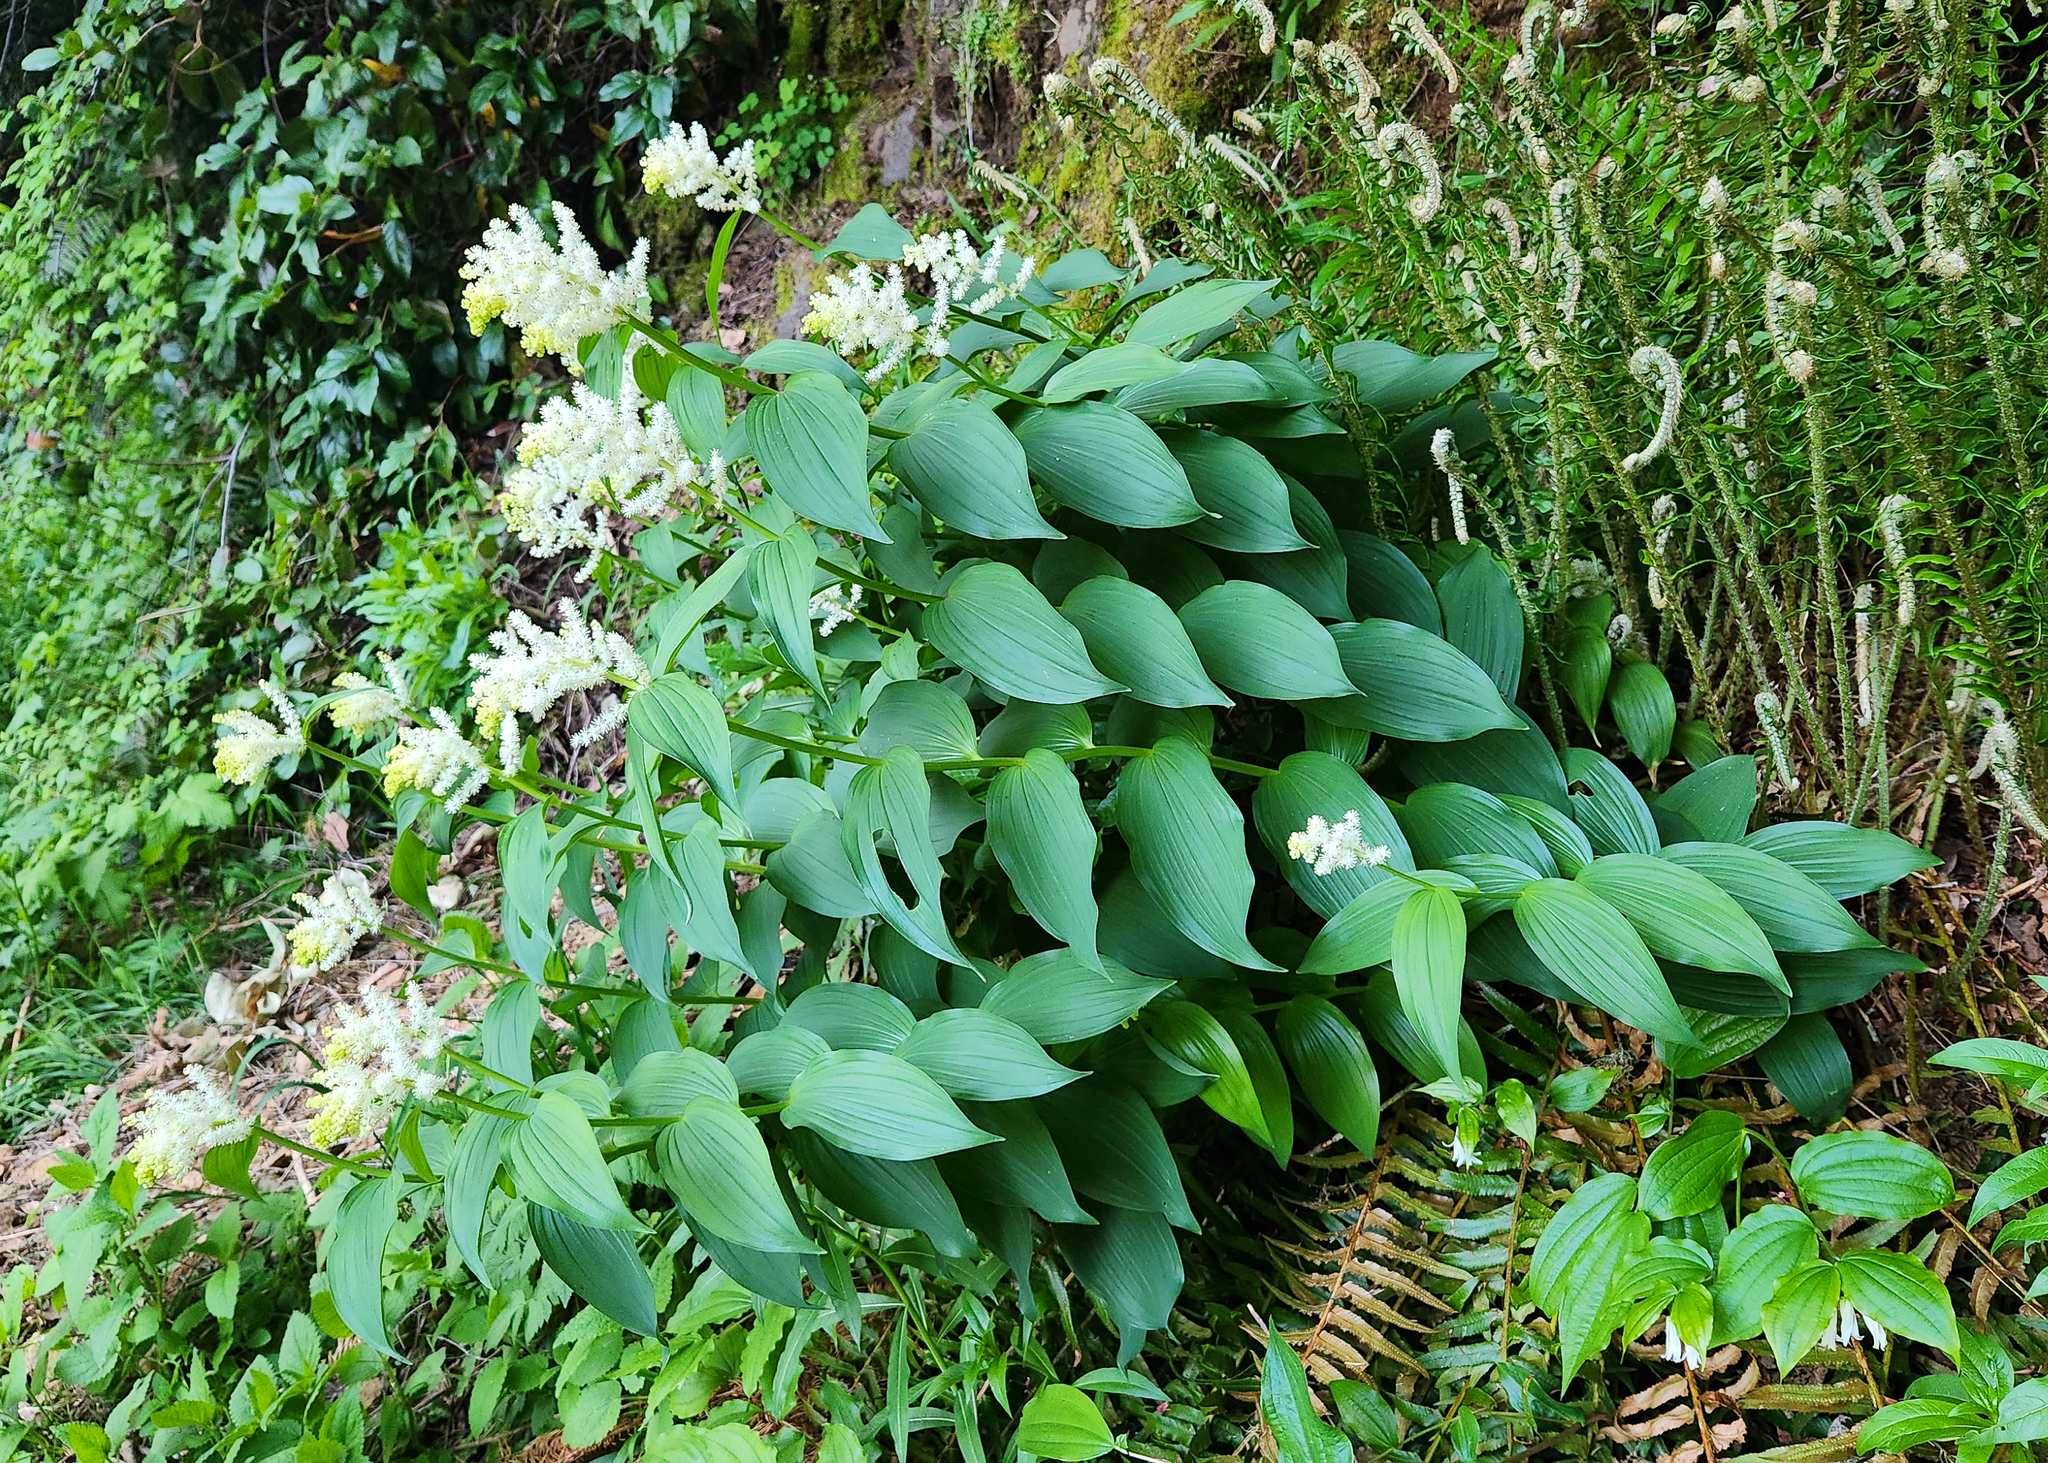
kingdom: Plantae
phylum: Tracheophyta
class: Liliopsida
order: Asparagales
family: Asparagaceae
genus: Maianthemum
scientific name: Maianthemum racemosum
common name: False spikenard
